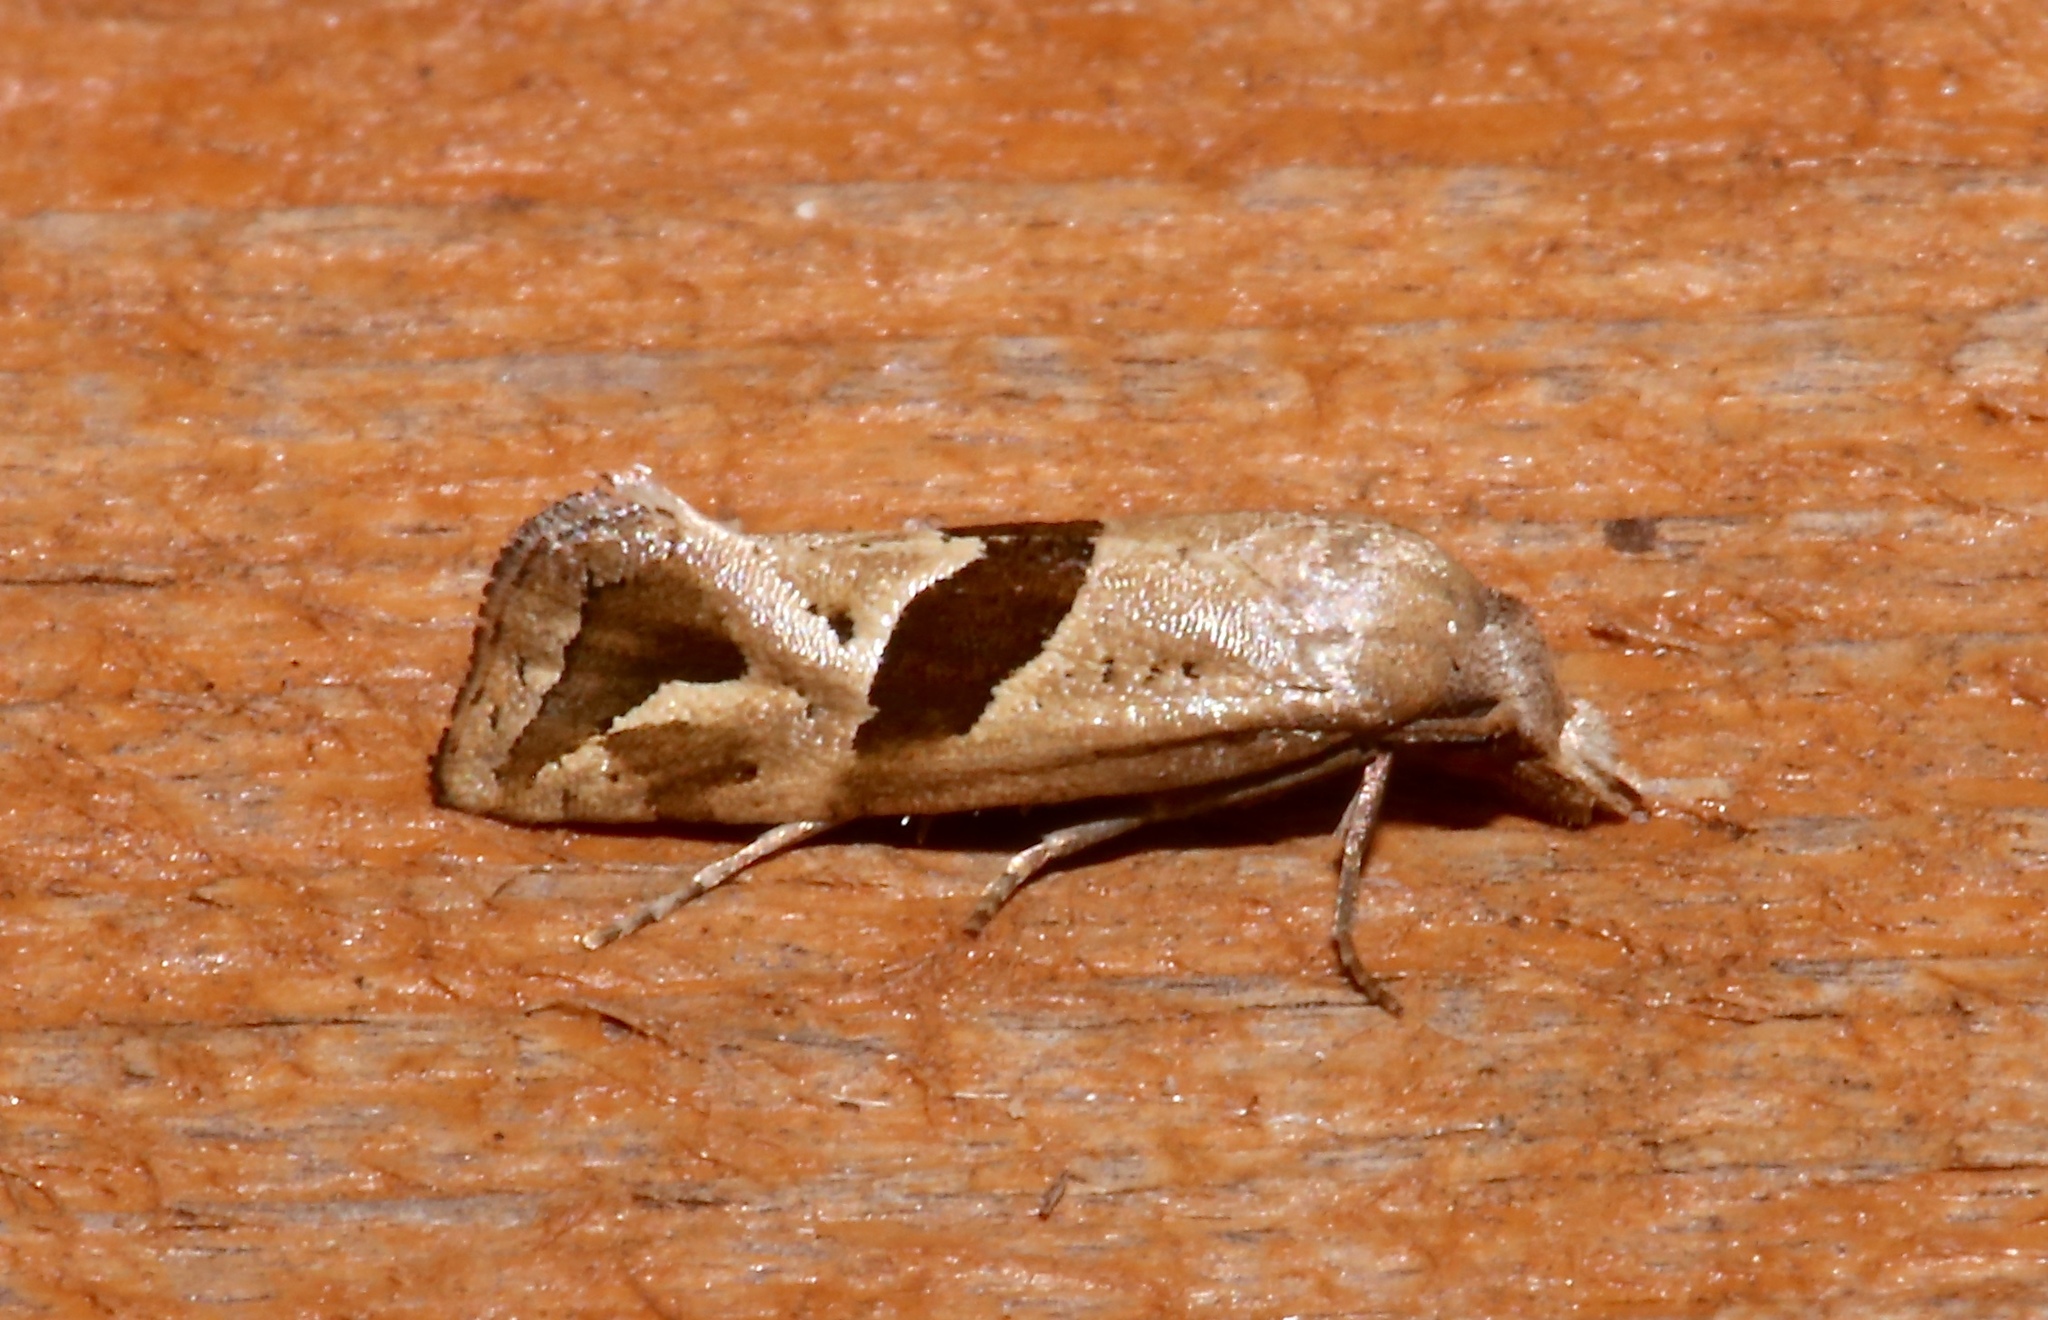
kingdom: Animalia
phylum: Arthropoda
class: Insecta
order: Lepidoptera
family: Tortricidae
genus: Eugnosta
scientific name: Eugnosta sartana
